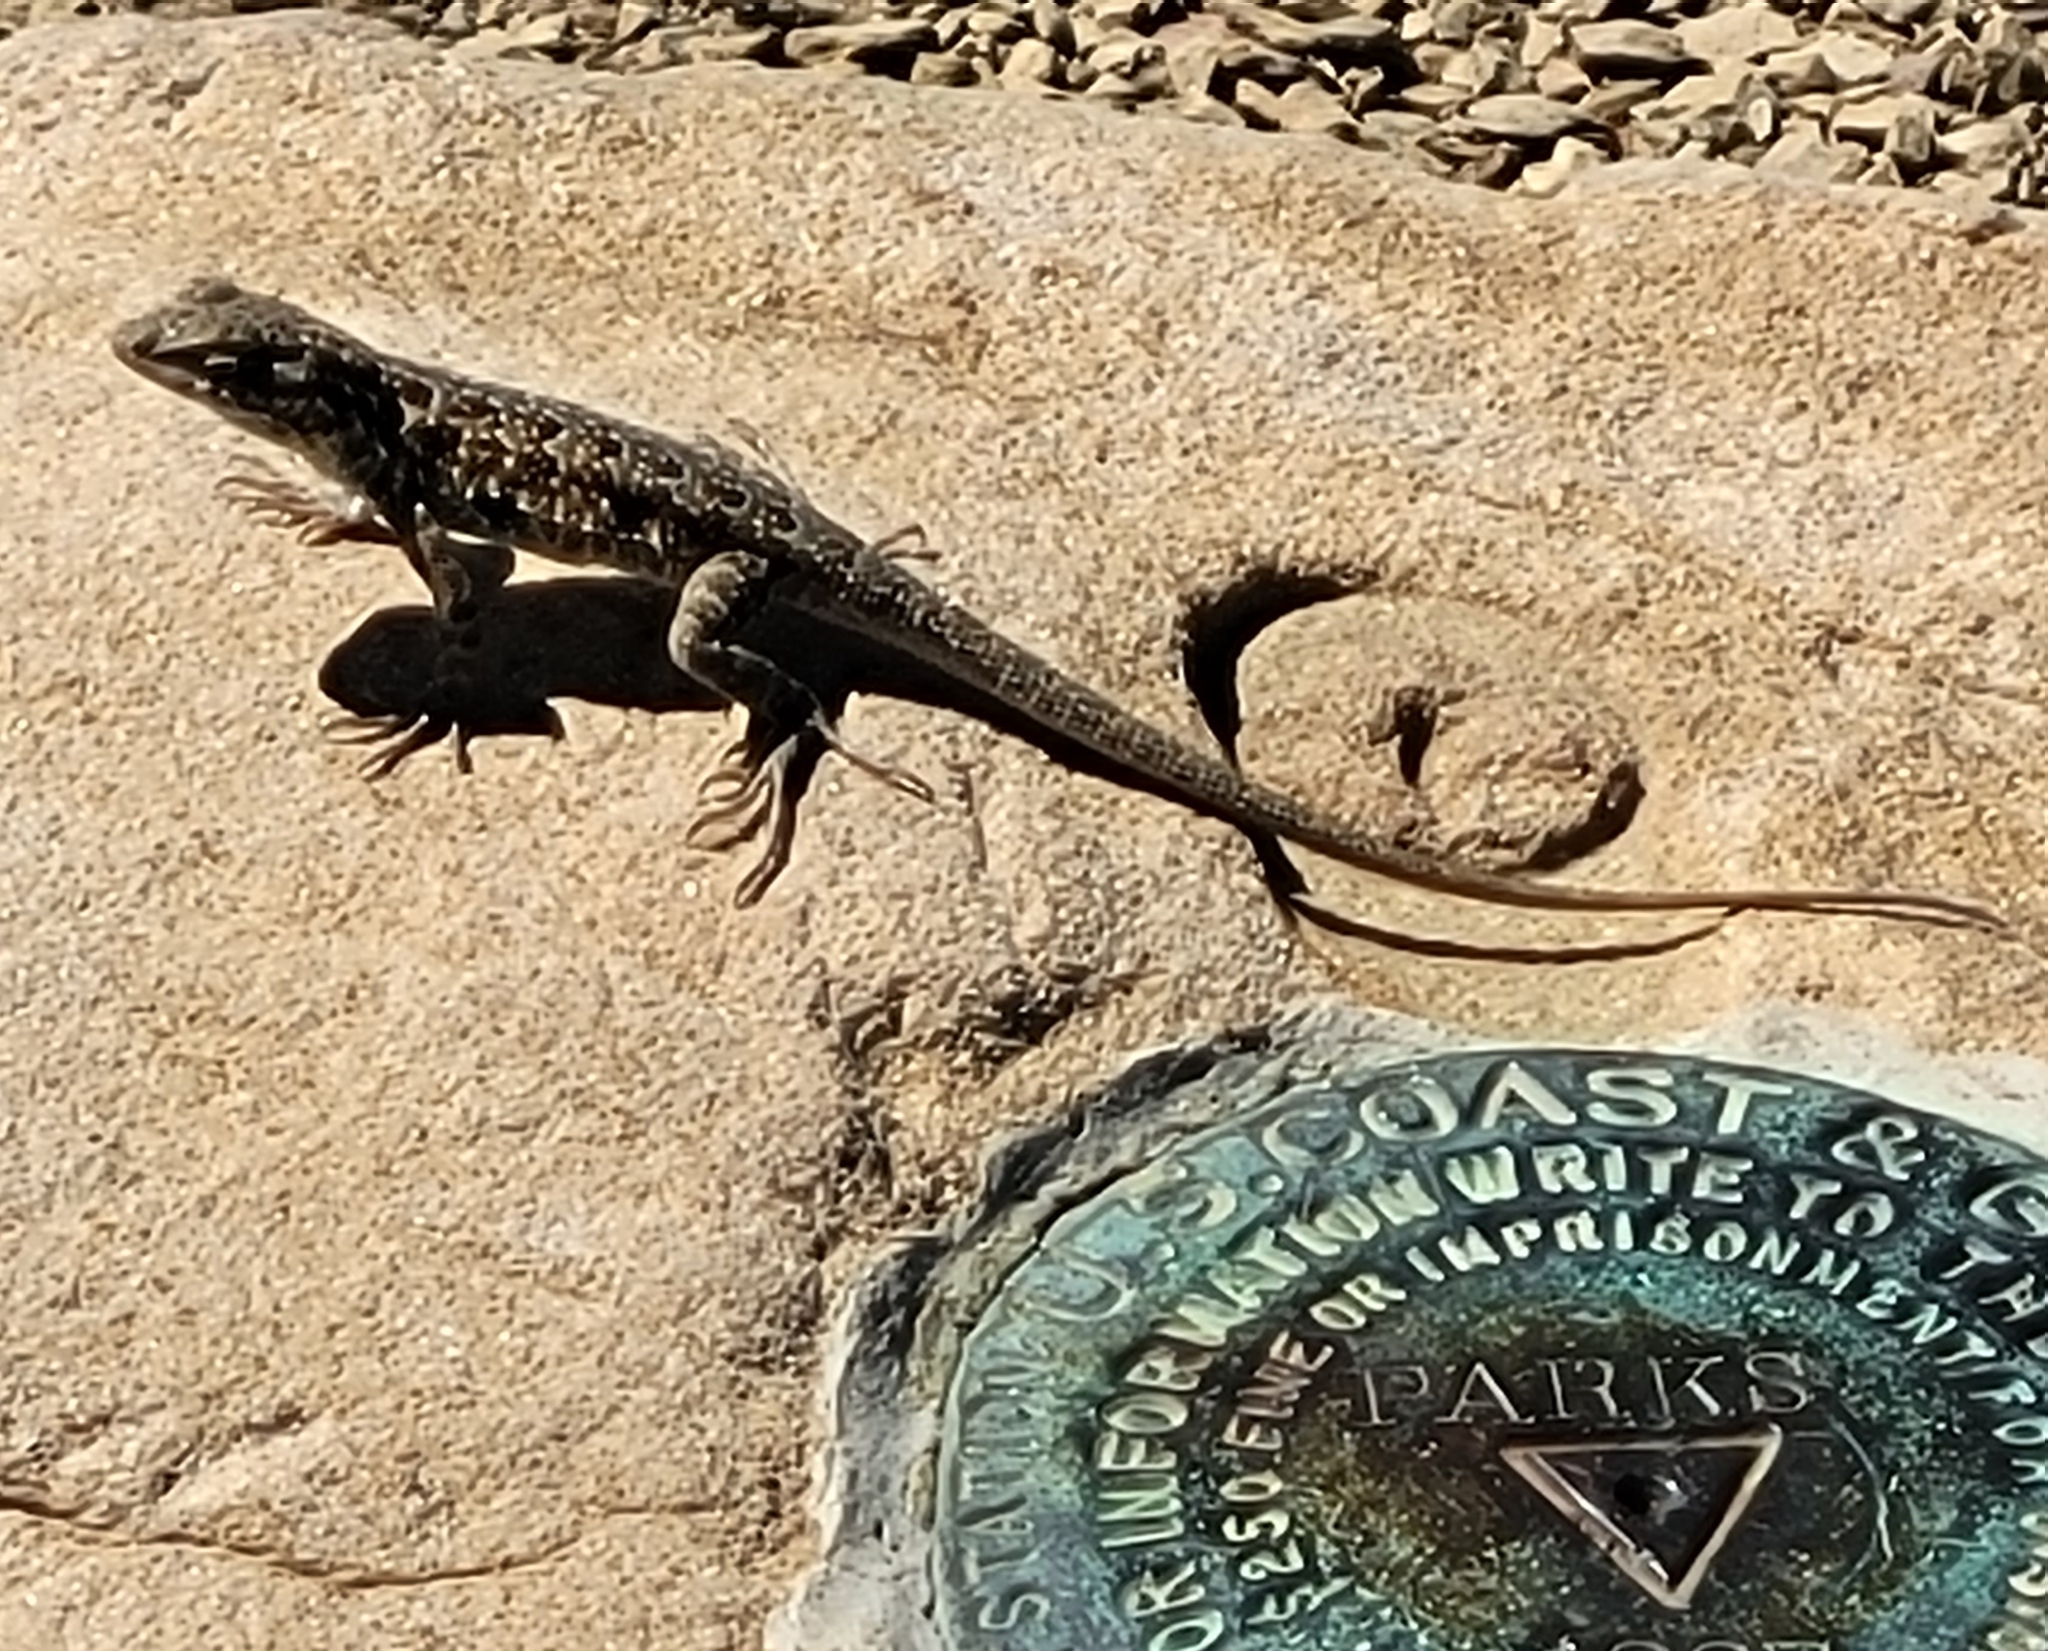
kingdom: Animalia
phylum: Chordata
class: Squamata
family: Phrynosomatidae
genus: Uta
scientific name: Uta stansburiana
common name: Side-blotched lizard
